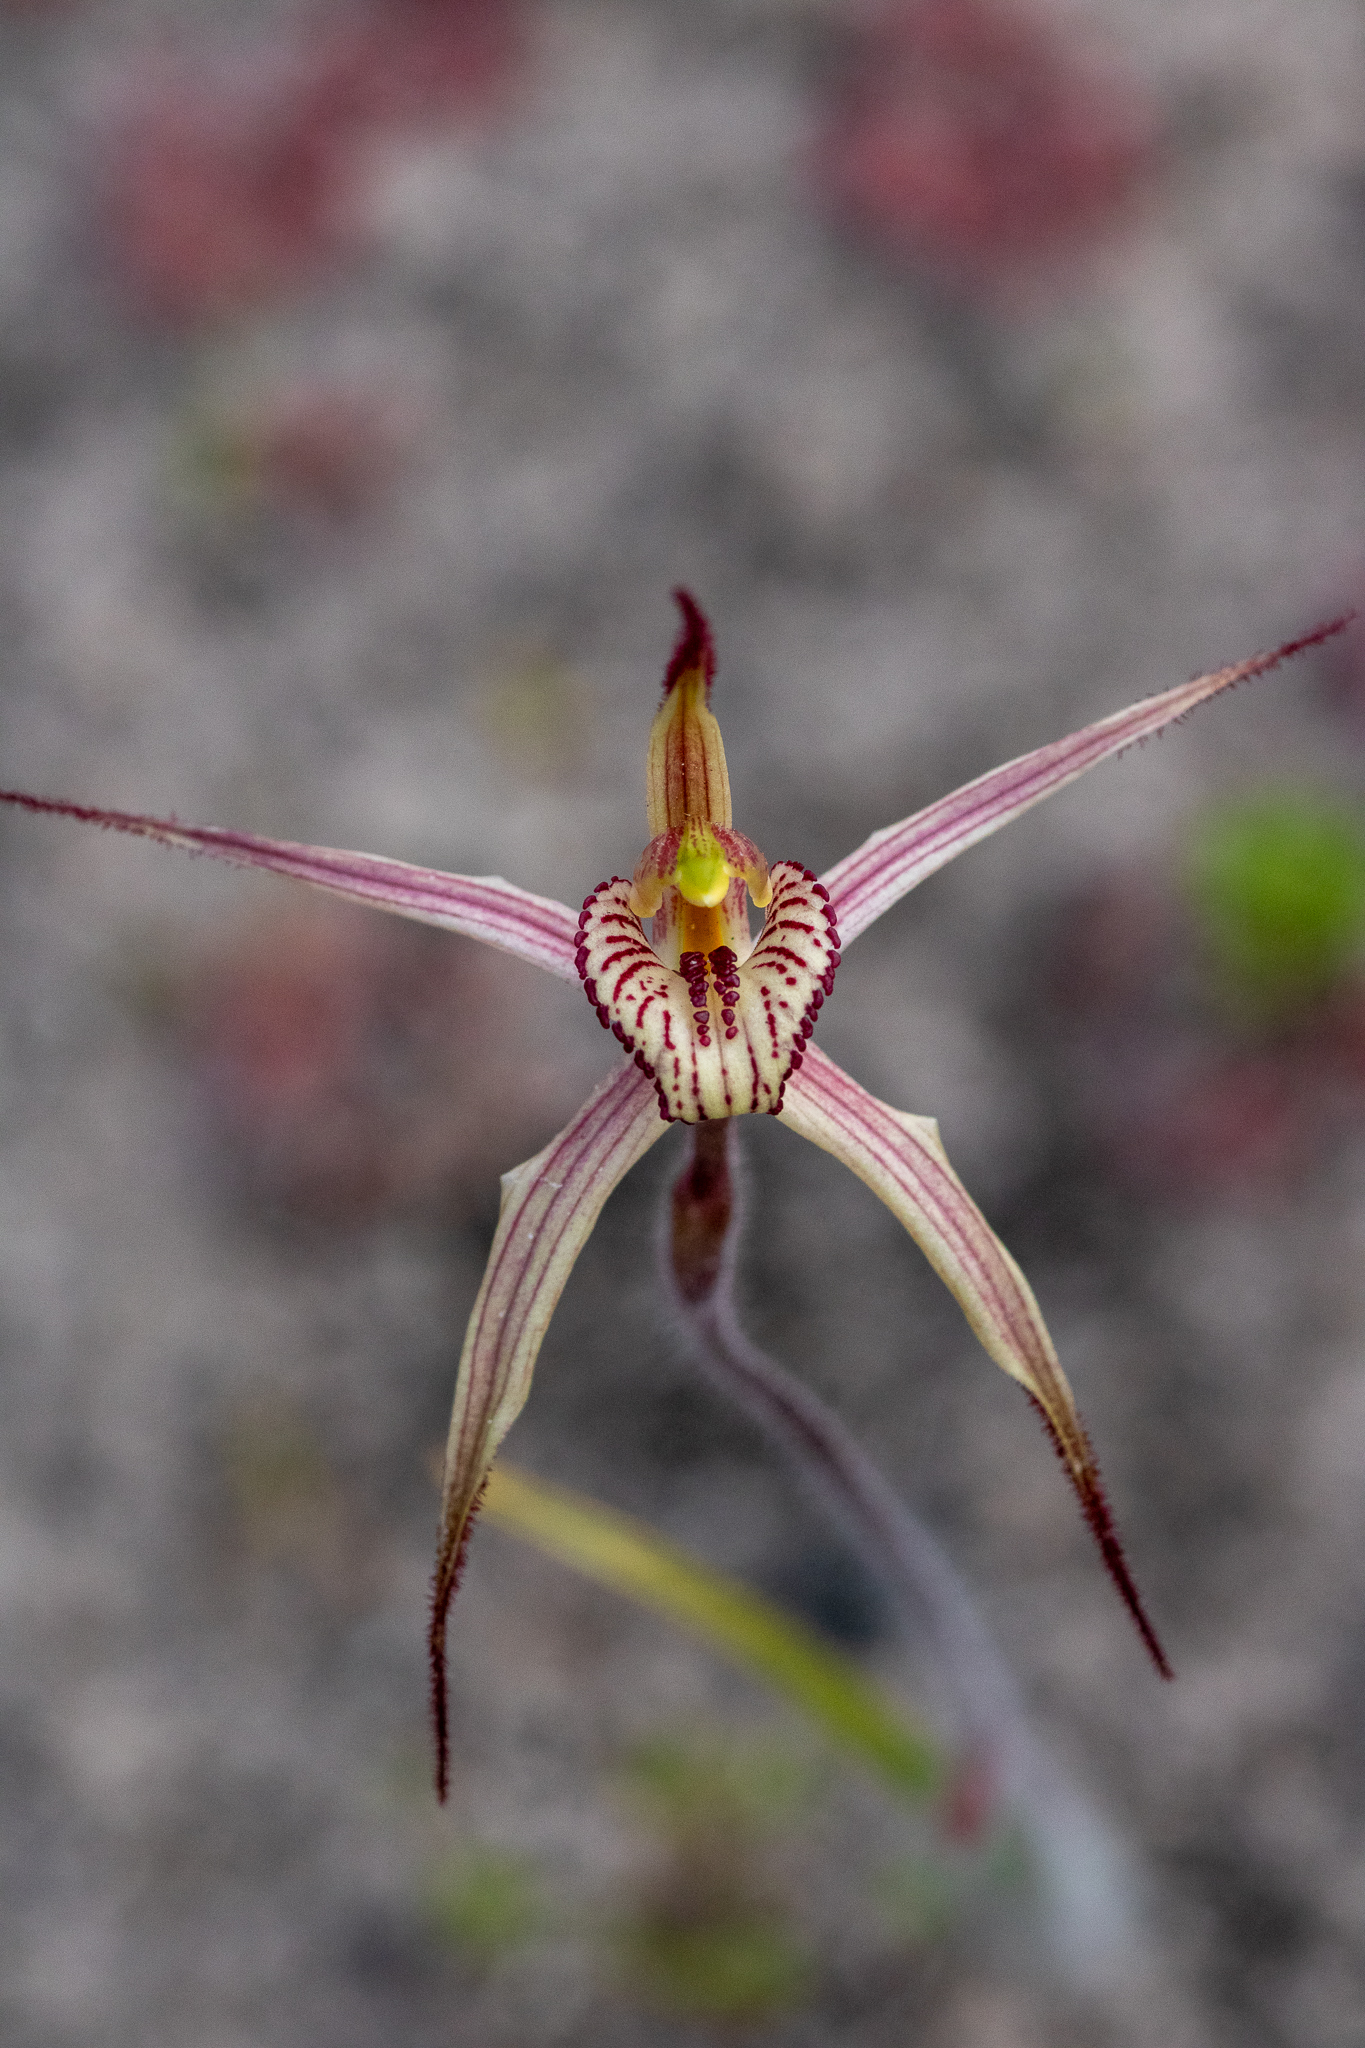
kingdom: Plantae
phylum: Tracheophyta
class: Liliopsida
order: Asparagales
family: Orchidaceae
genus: Caladenia
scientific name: Caladenia ericksoniae
